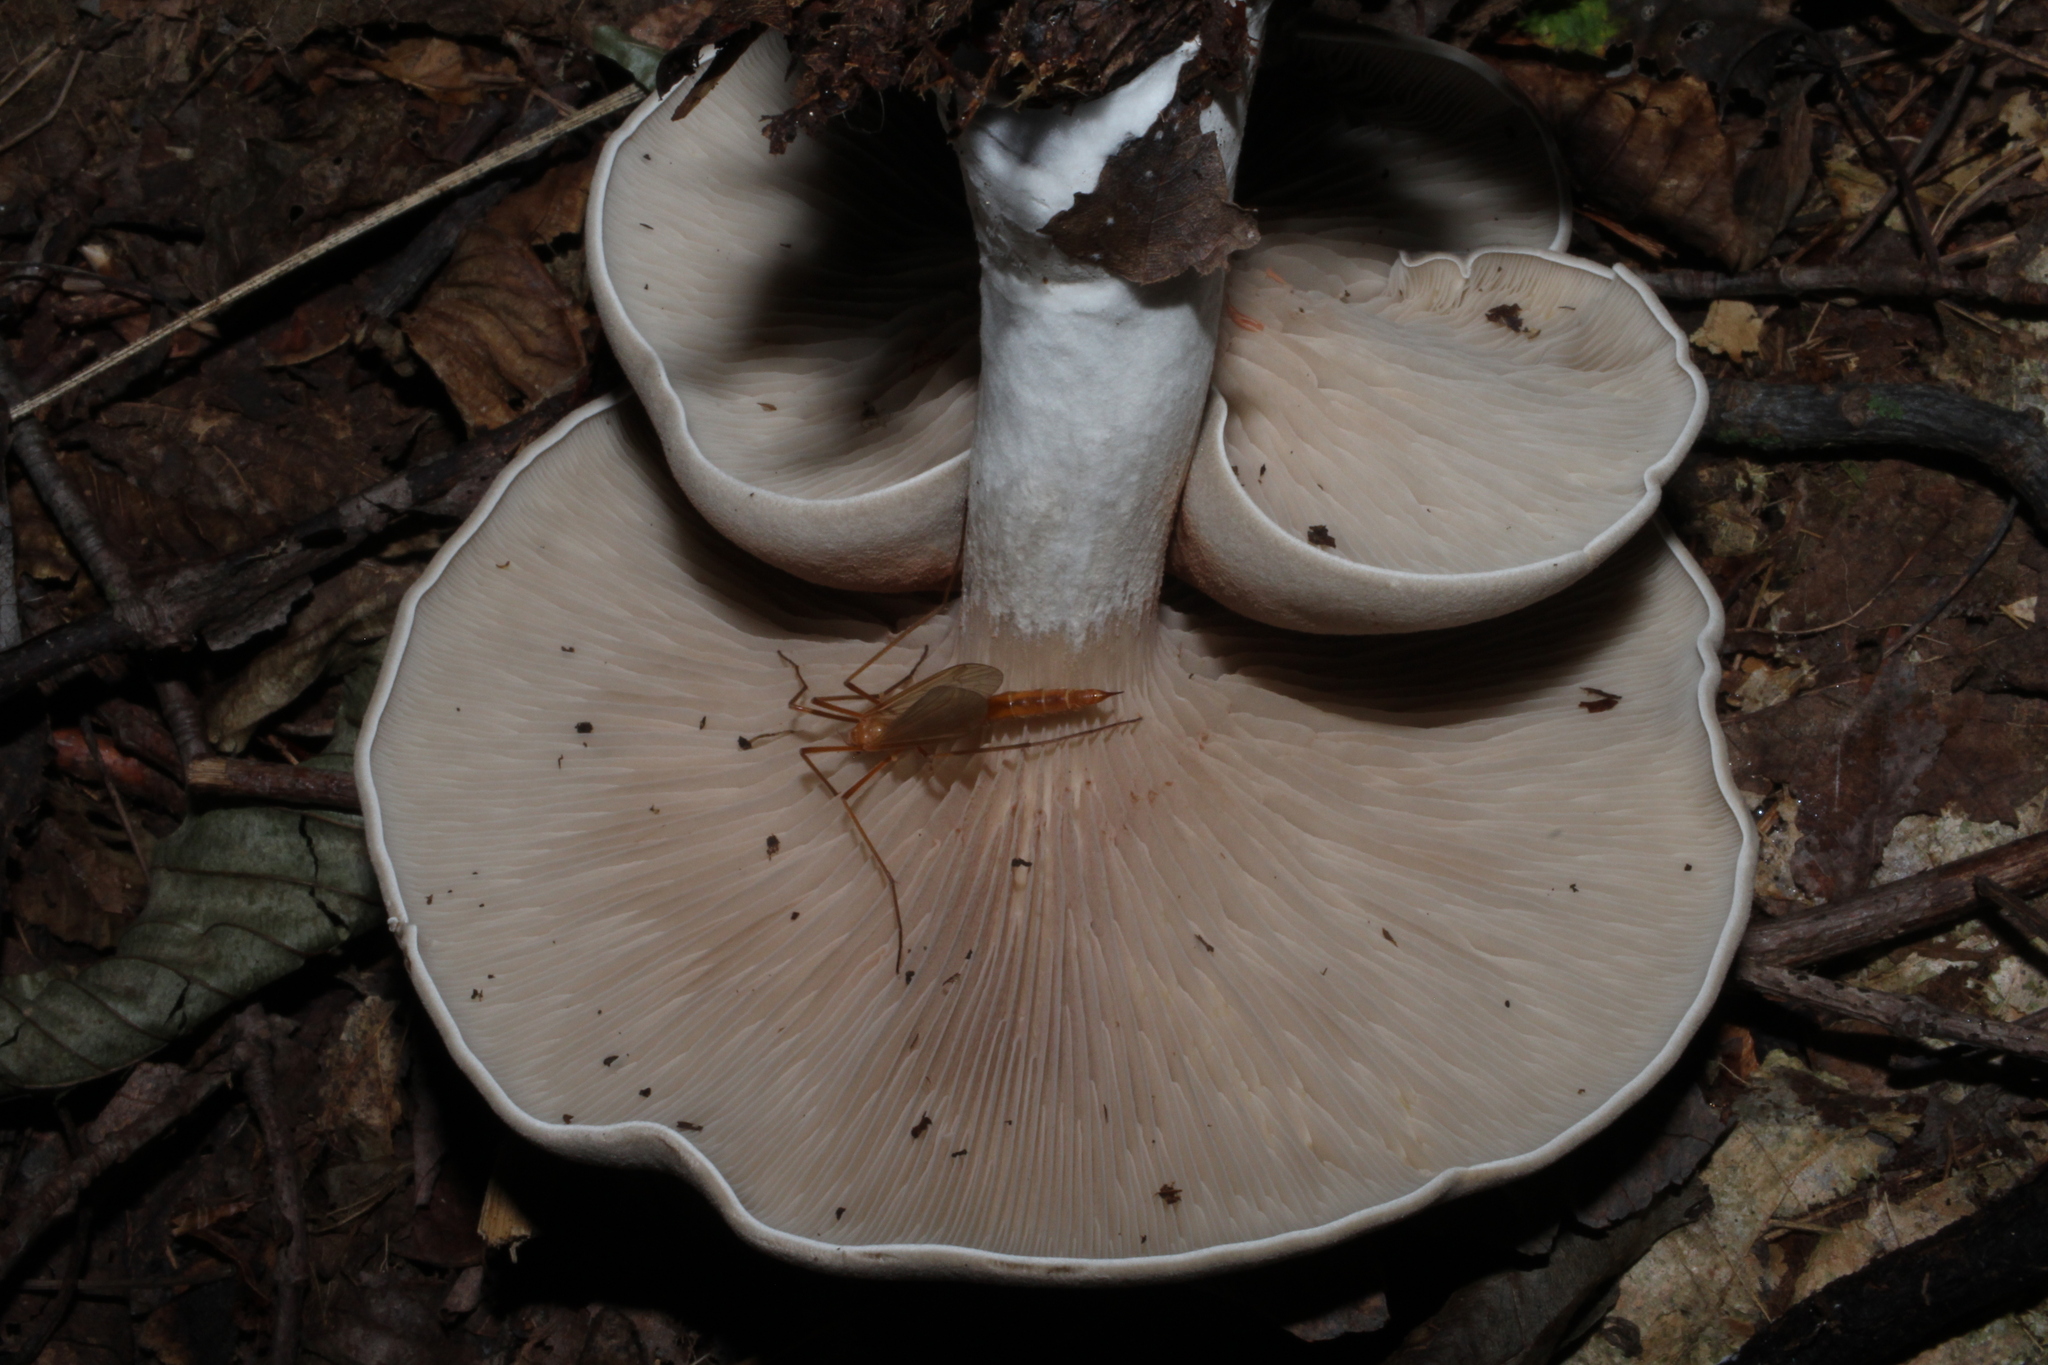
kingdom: Fungi
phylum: Basidiomycota
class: Agaricomycetes
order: Agaricales
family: Entolomataceae
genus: Entoloma
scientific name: Entoloma abortivum
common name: Aborted entoloma
